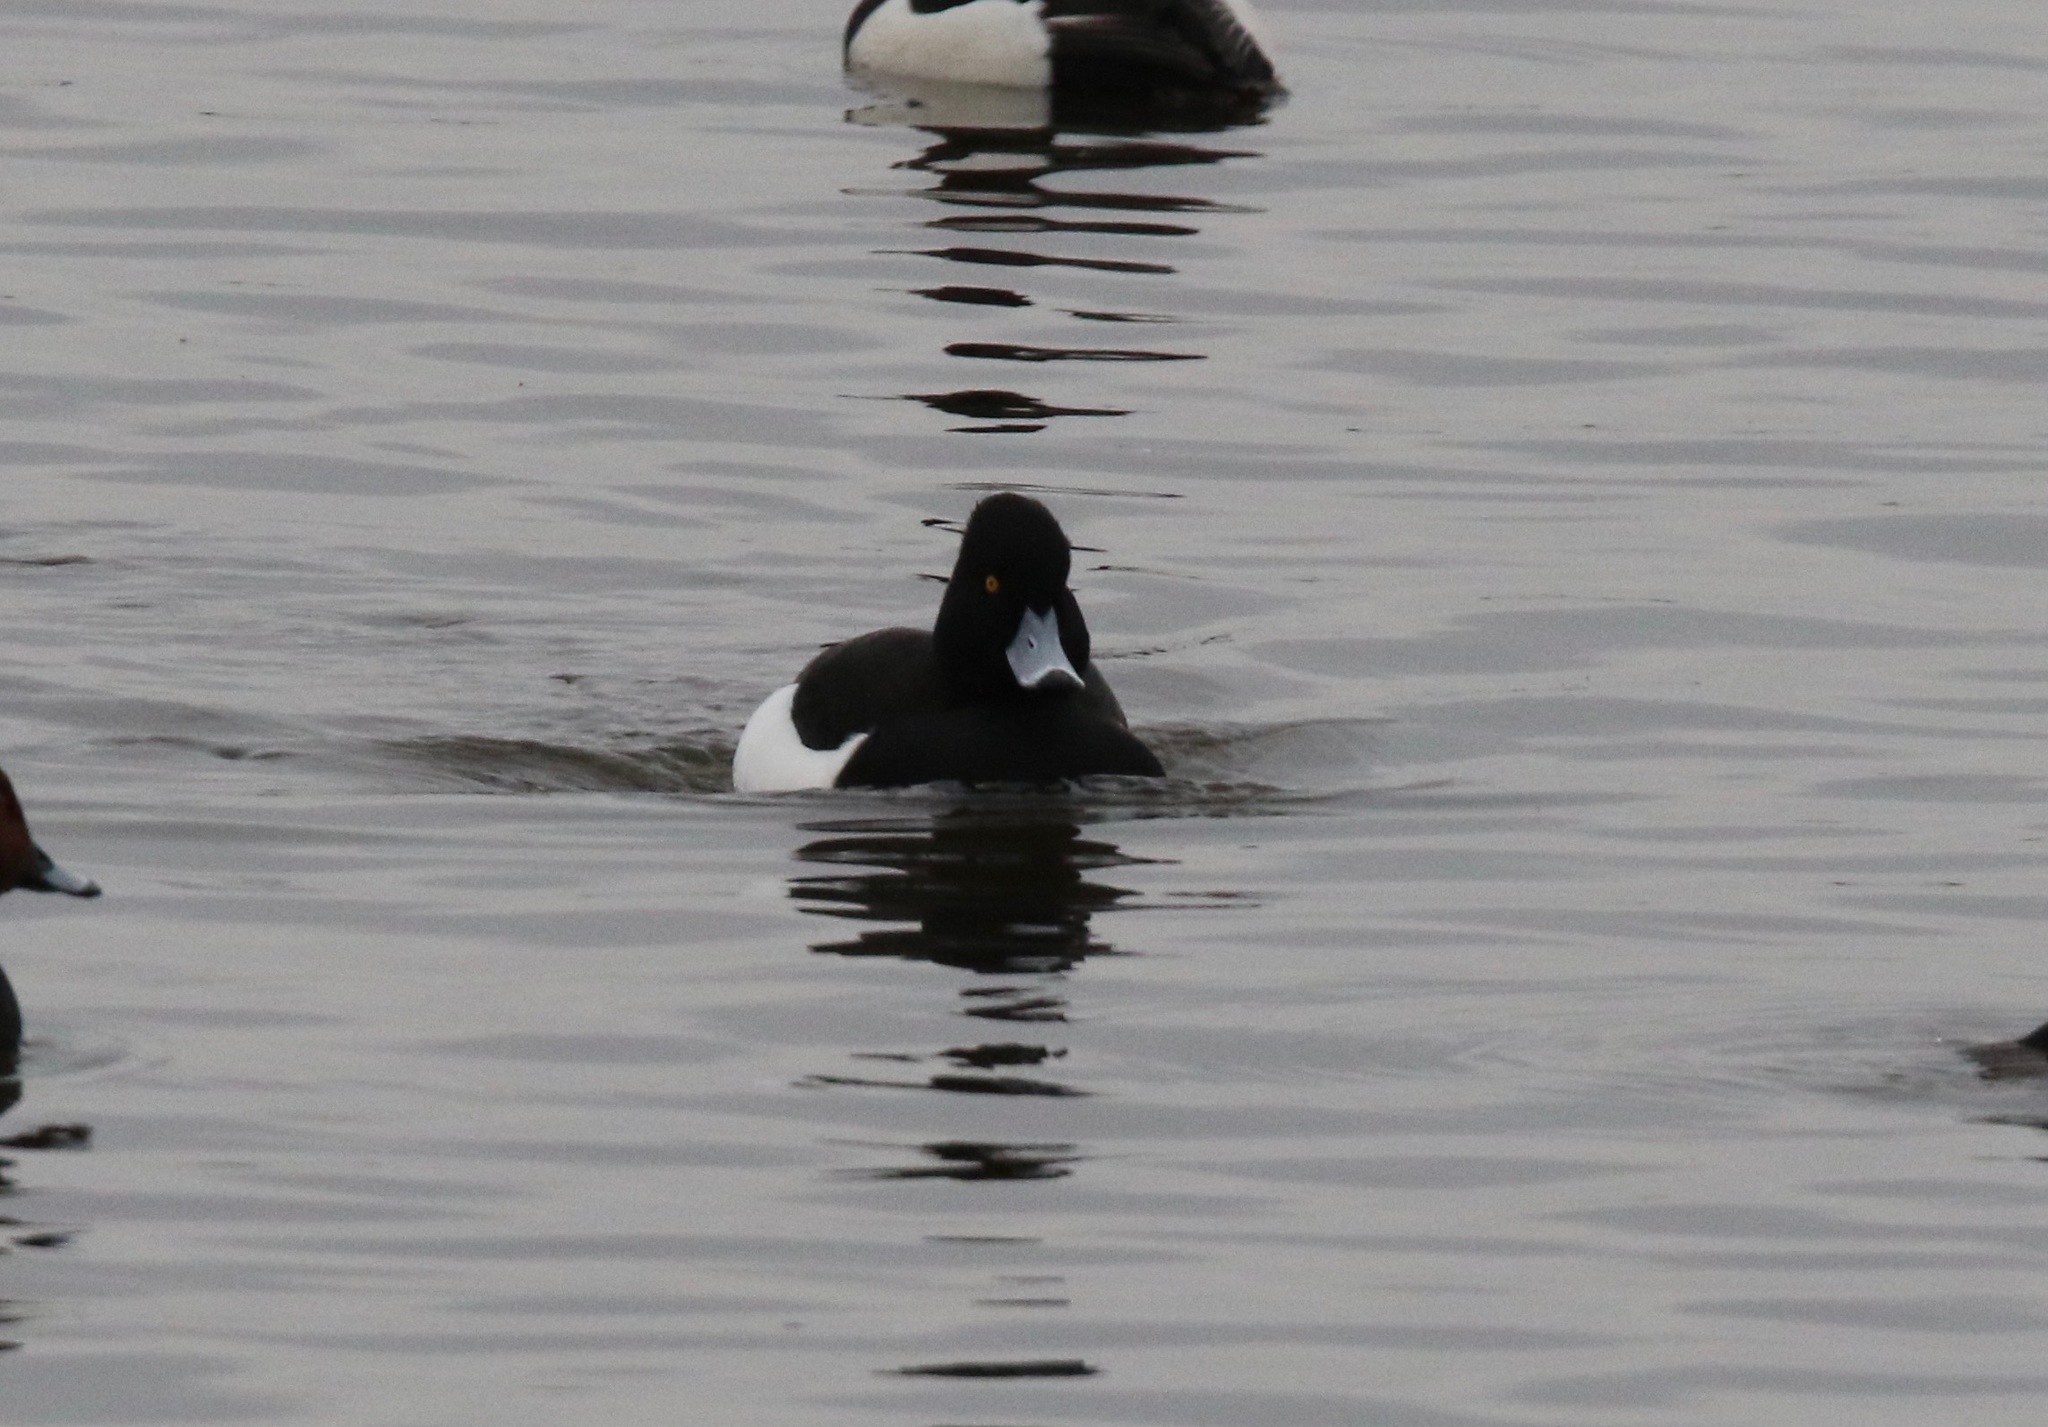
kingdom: Animalia
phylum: Chordata
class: Aves
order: Anseriformes
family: Anatidae
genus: Aythya
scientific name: Aythya fuligula
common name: Tufted duck
